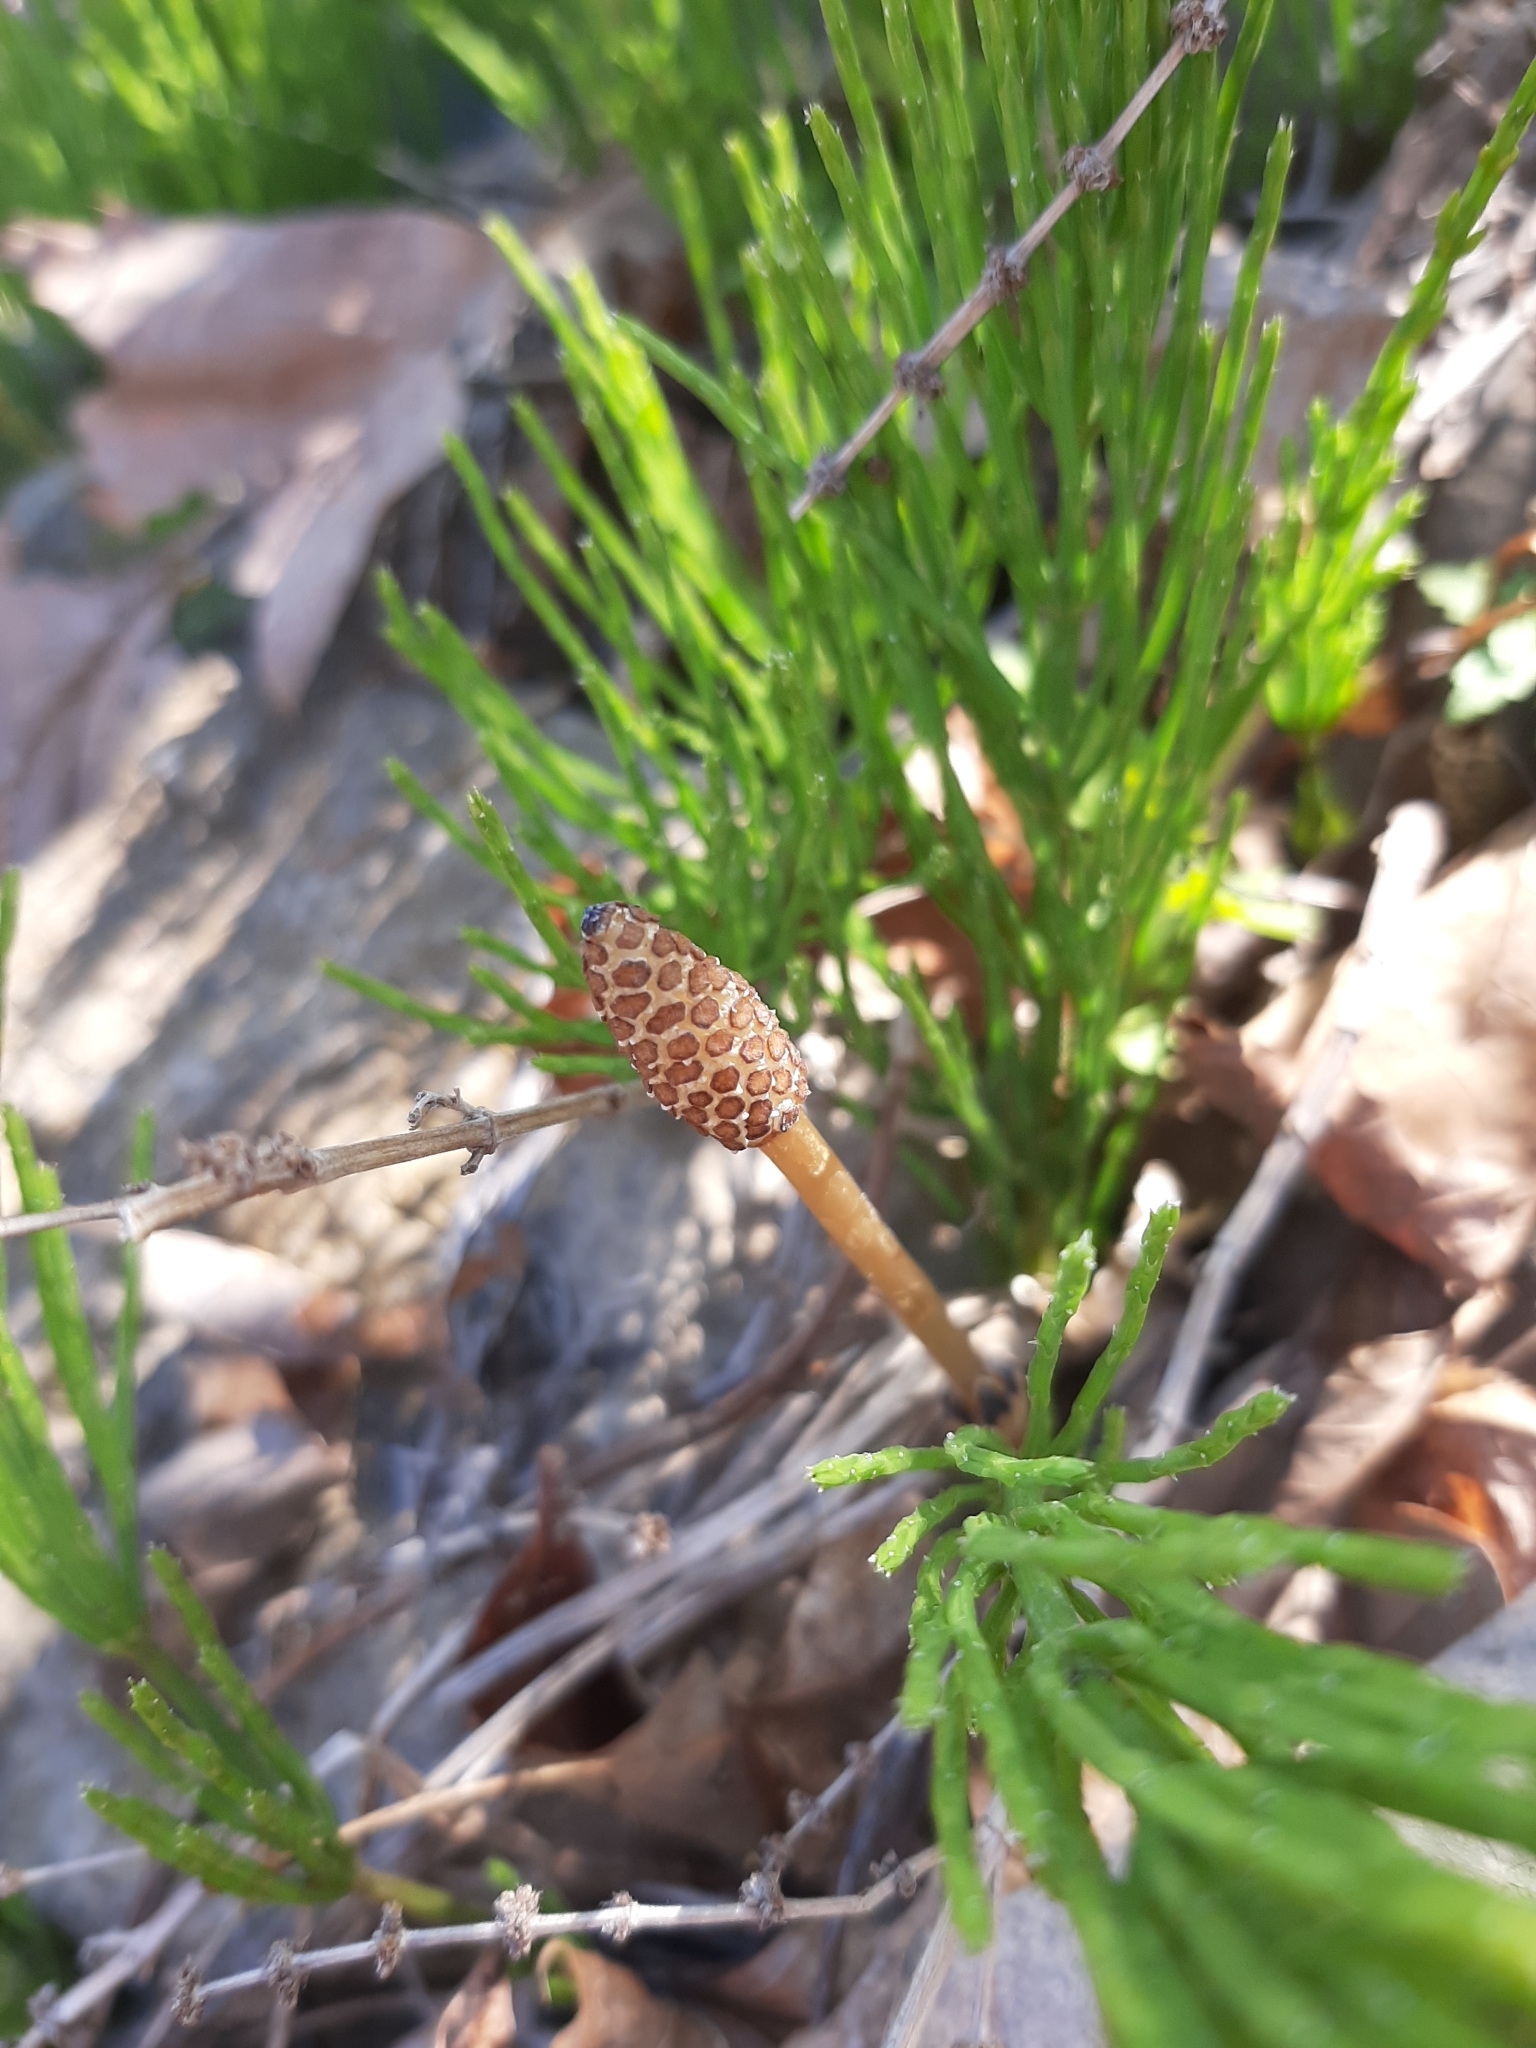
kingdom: Plantae
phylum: Tracheophyta
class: Polypodiopsida
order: Equisetales
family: Equisetaceae
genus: Equisetum
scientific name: Equisetum arvense
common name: Field horsetail
